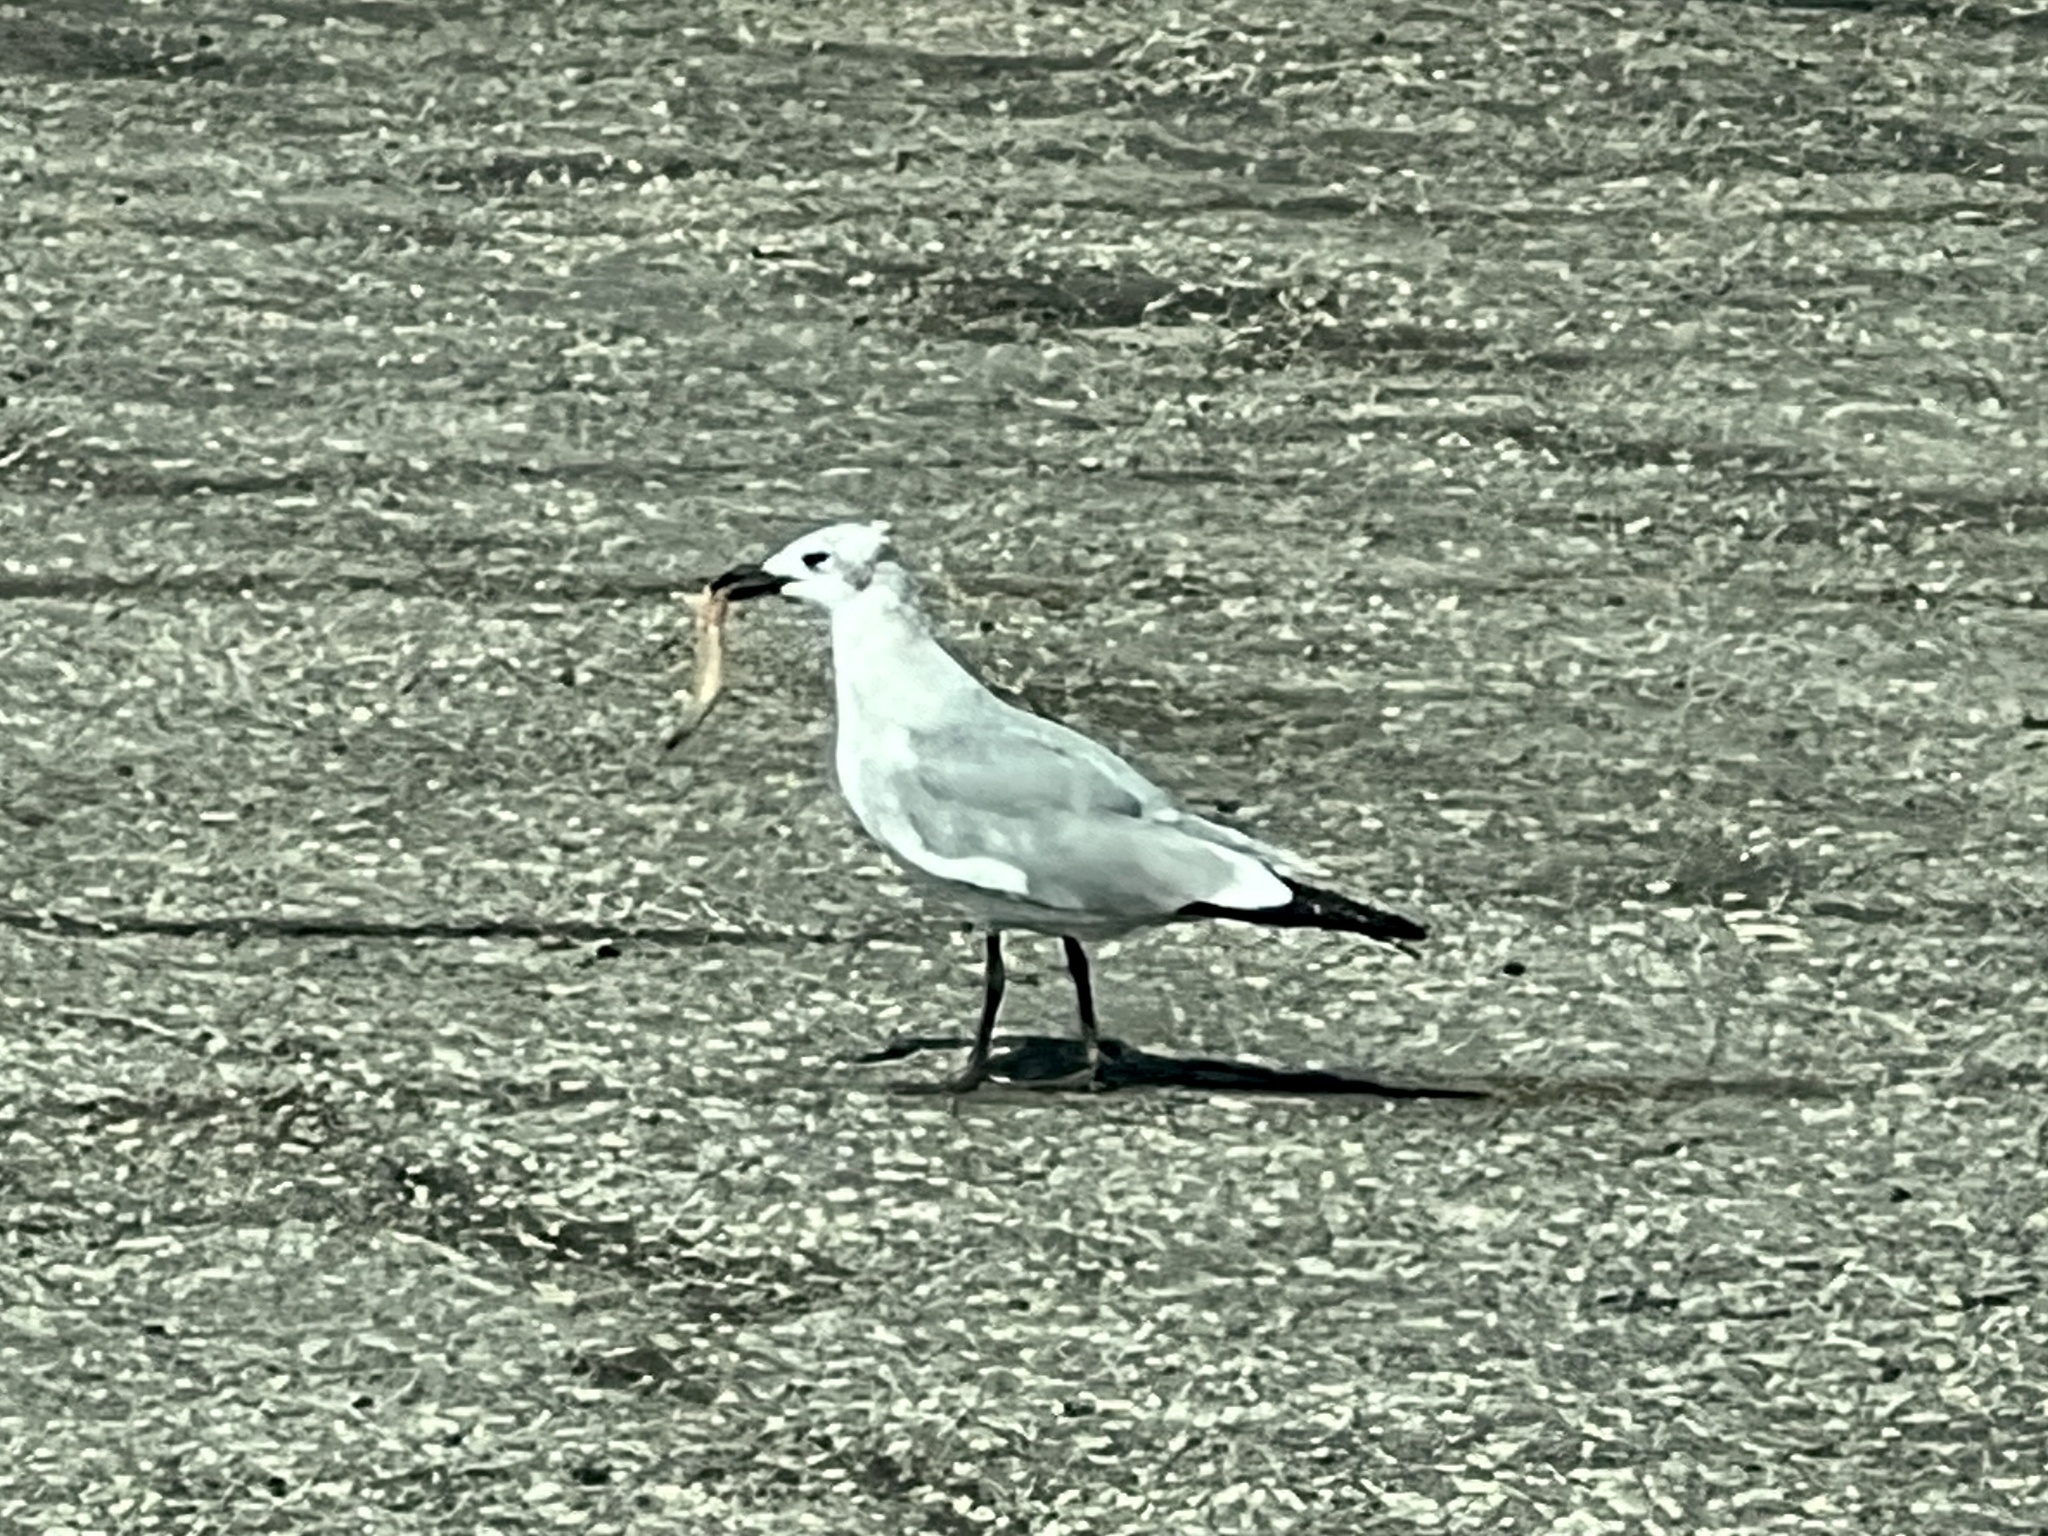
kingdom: Animalia
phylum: Chordata
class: Aves
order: Charadriiformes
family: Laridae
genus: Leucophaeus
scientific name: Leucophaeus atricilla
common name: Laughing gull
